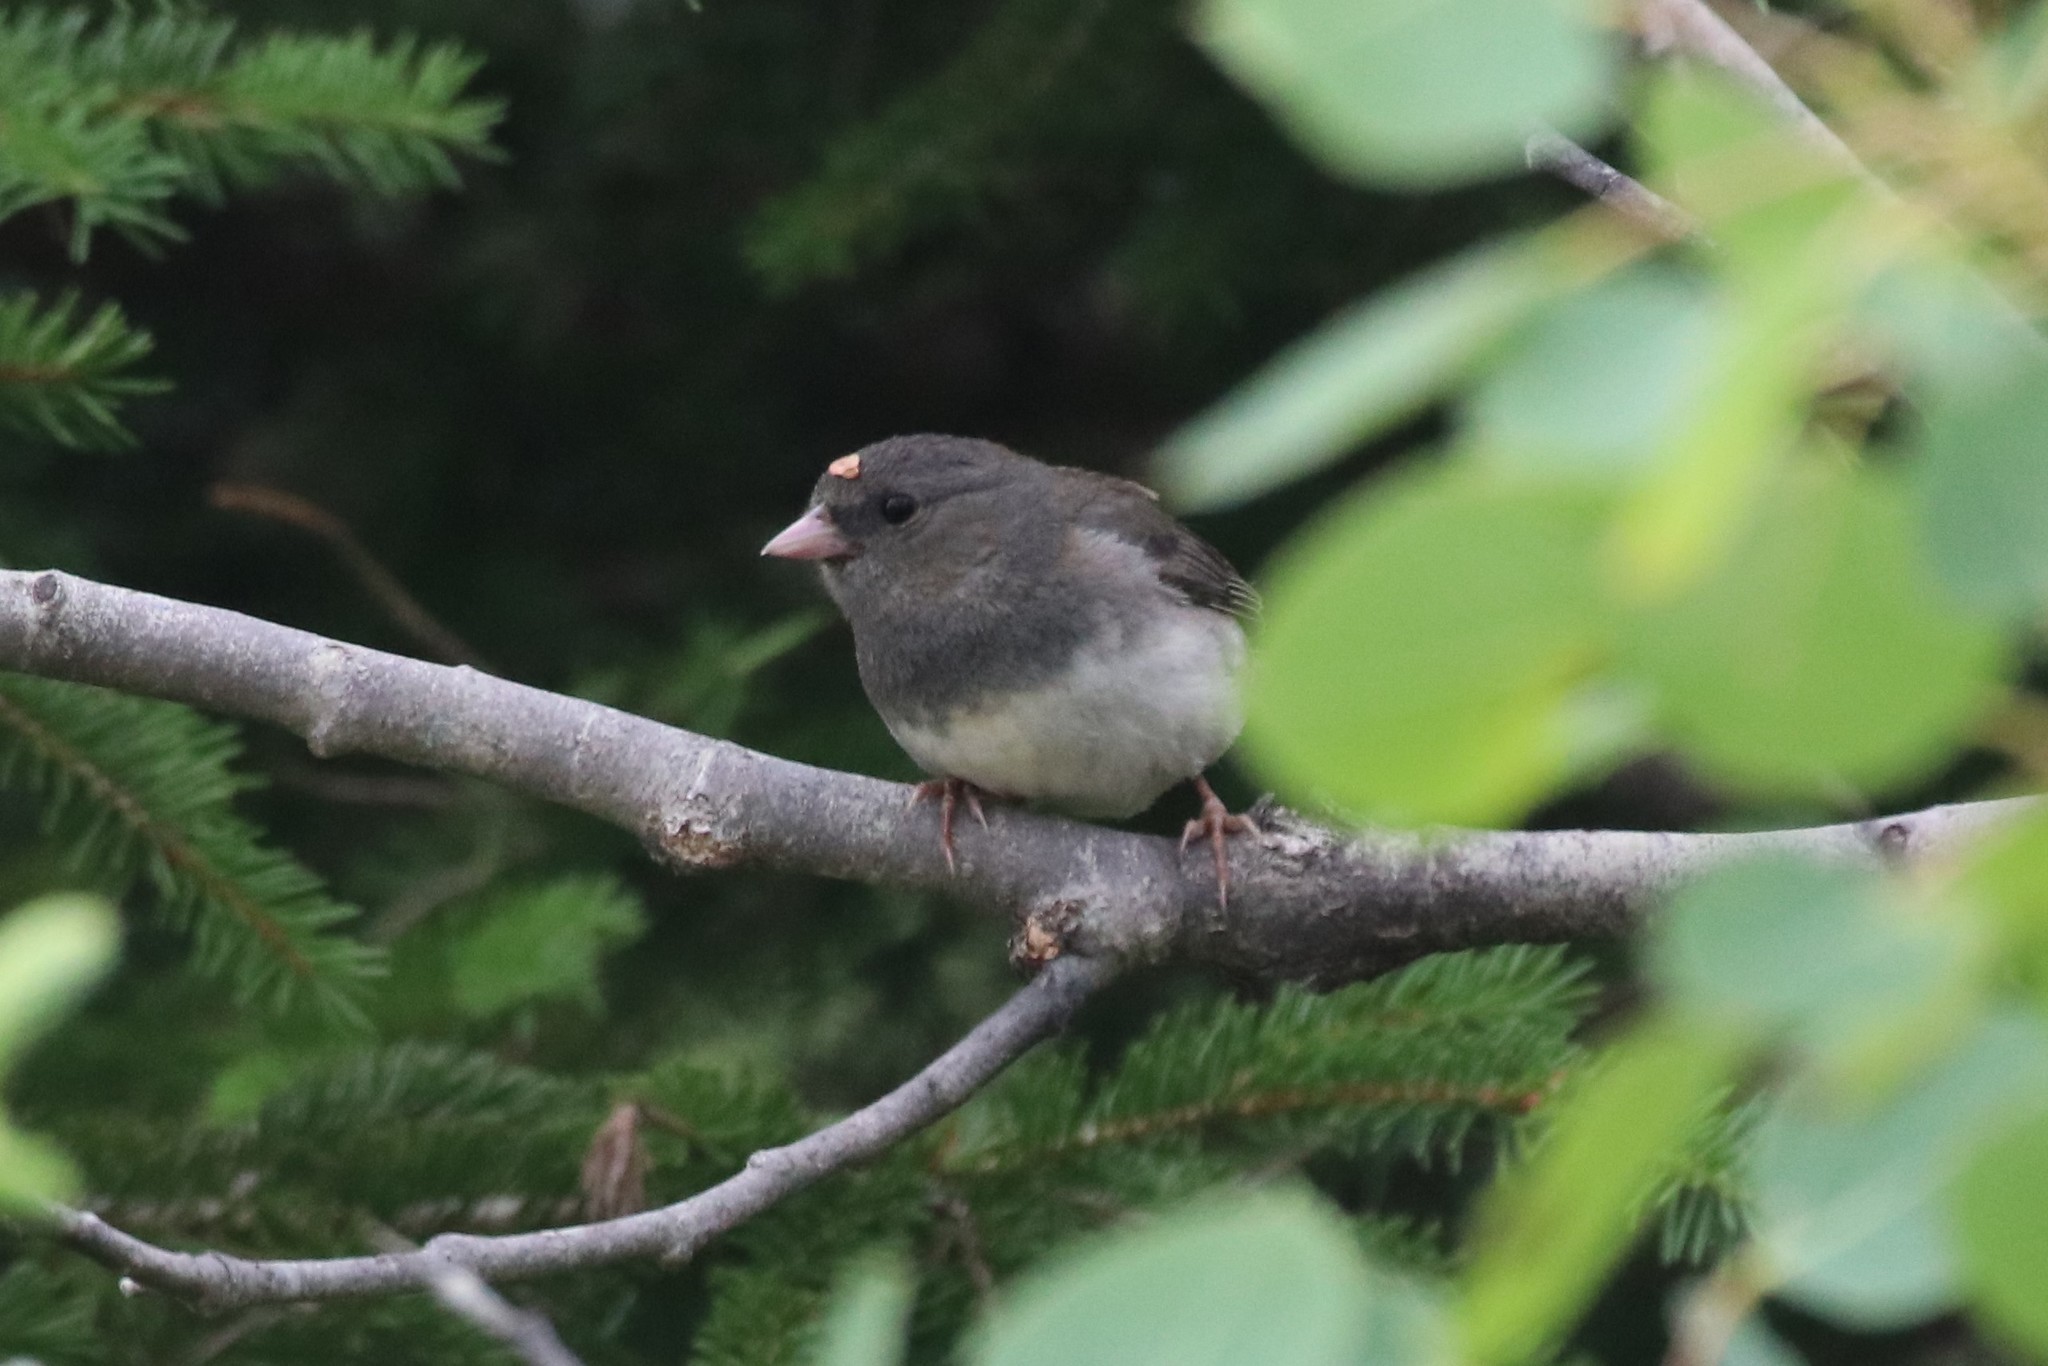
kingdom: Animalia
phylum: Chordata
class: Aves
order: Passeriformes
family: Passerellidae
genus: Junco
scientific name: Junco hyemalis
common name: Dark-eyed junco
